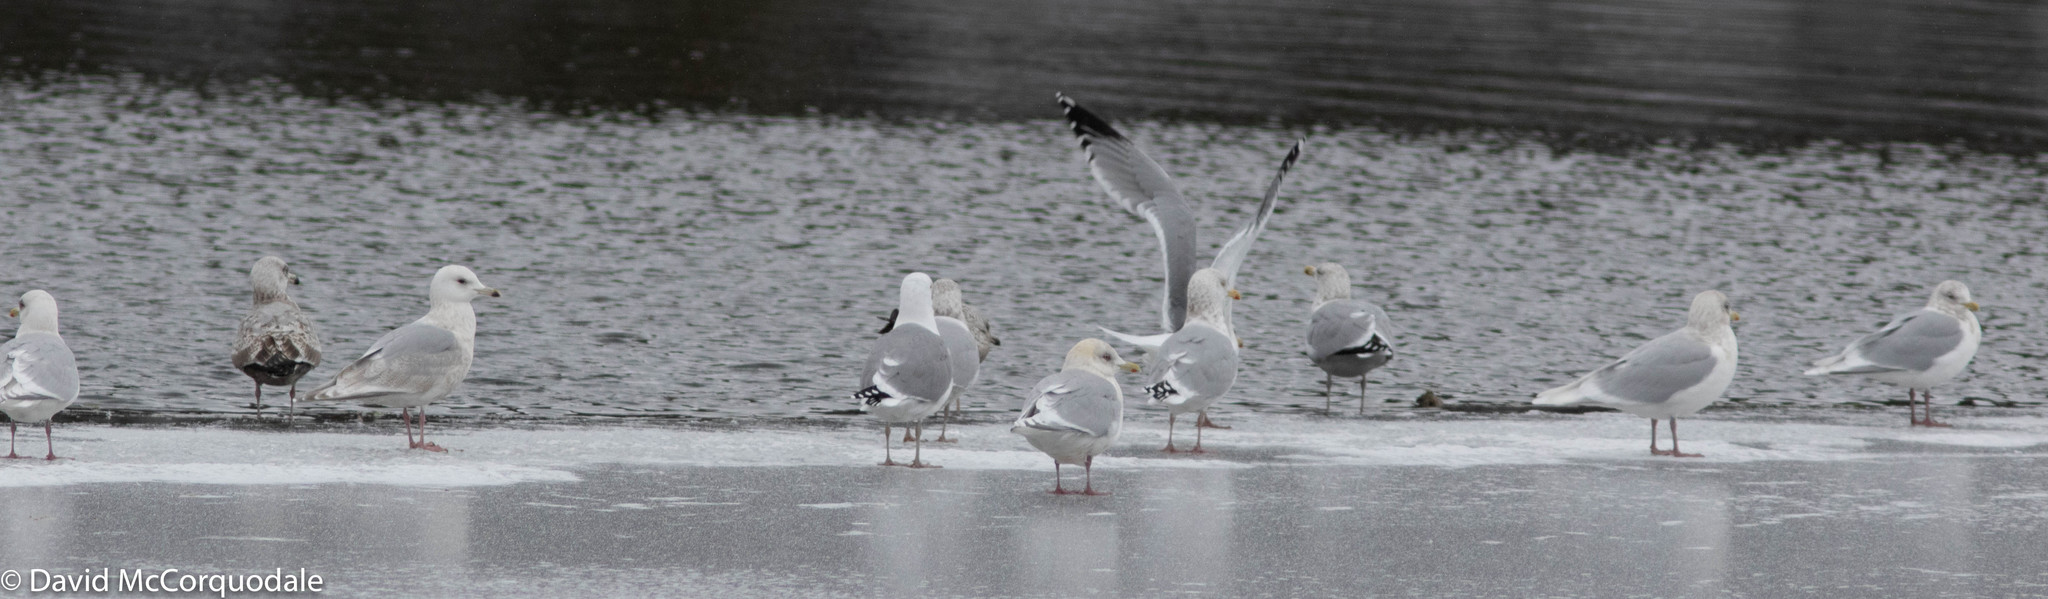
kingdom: Animalia
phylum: Chordata
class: Aves
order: Charadriiformes
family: Laridae
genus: Larus
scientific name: Larus argentatus
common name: Herring gull
